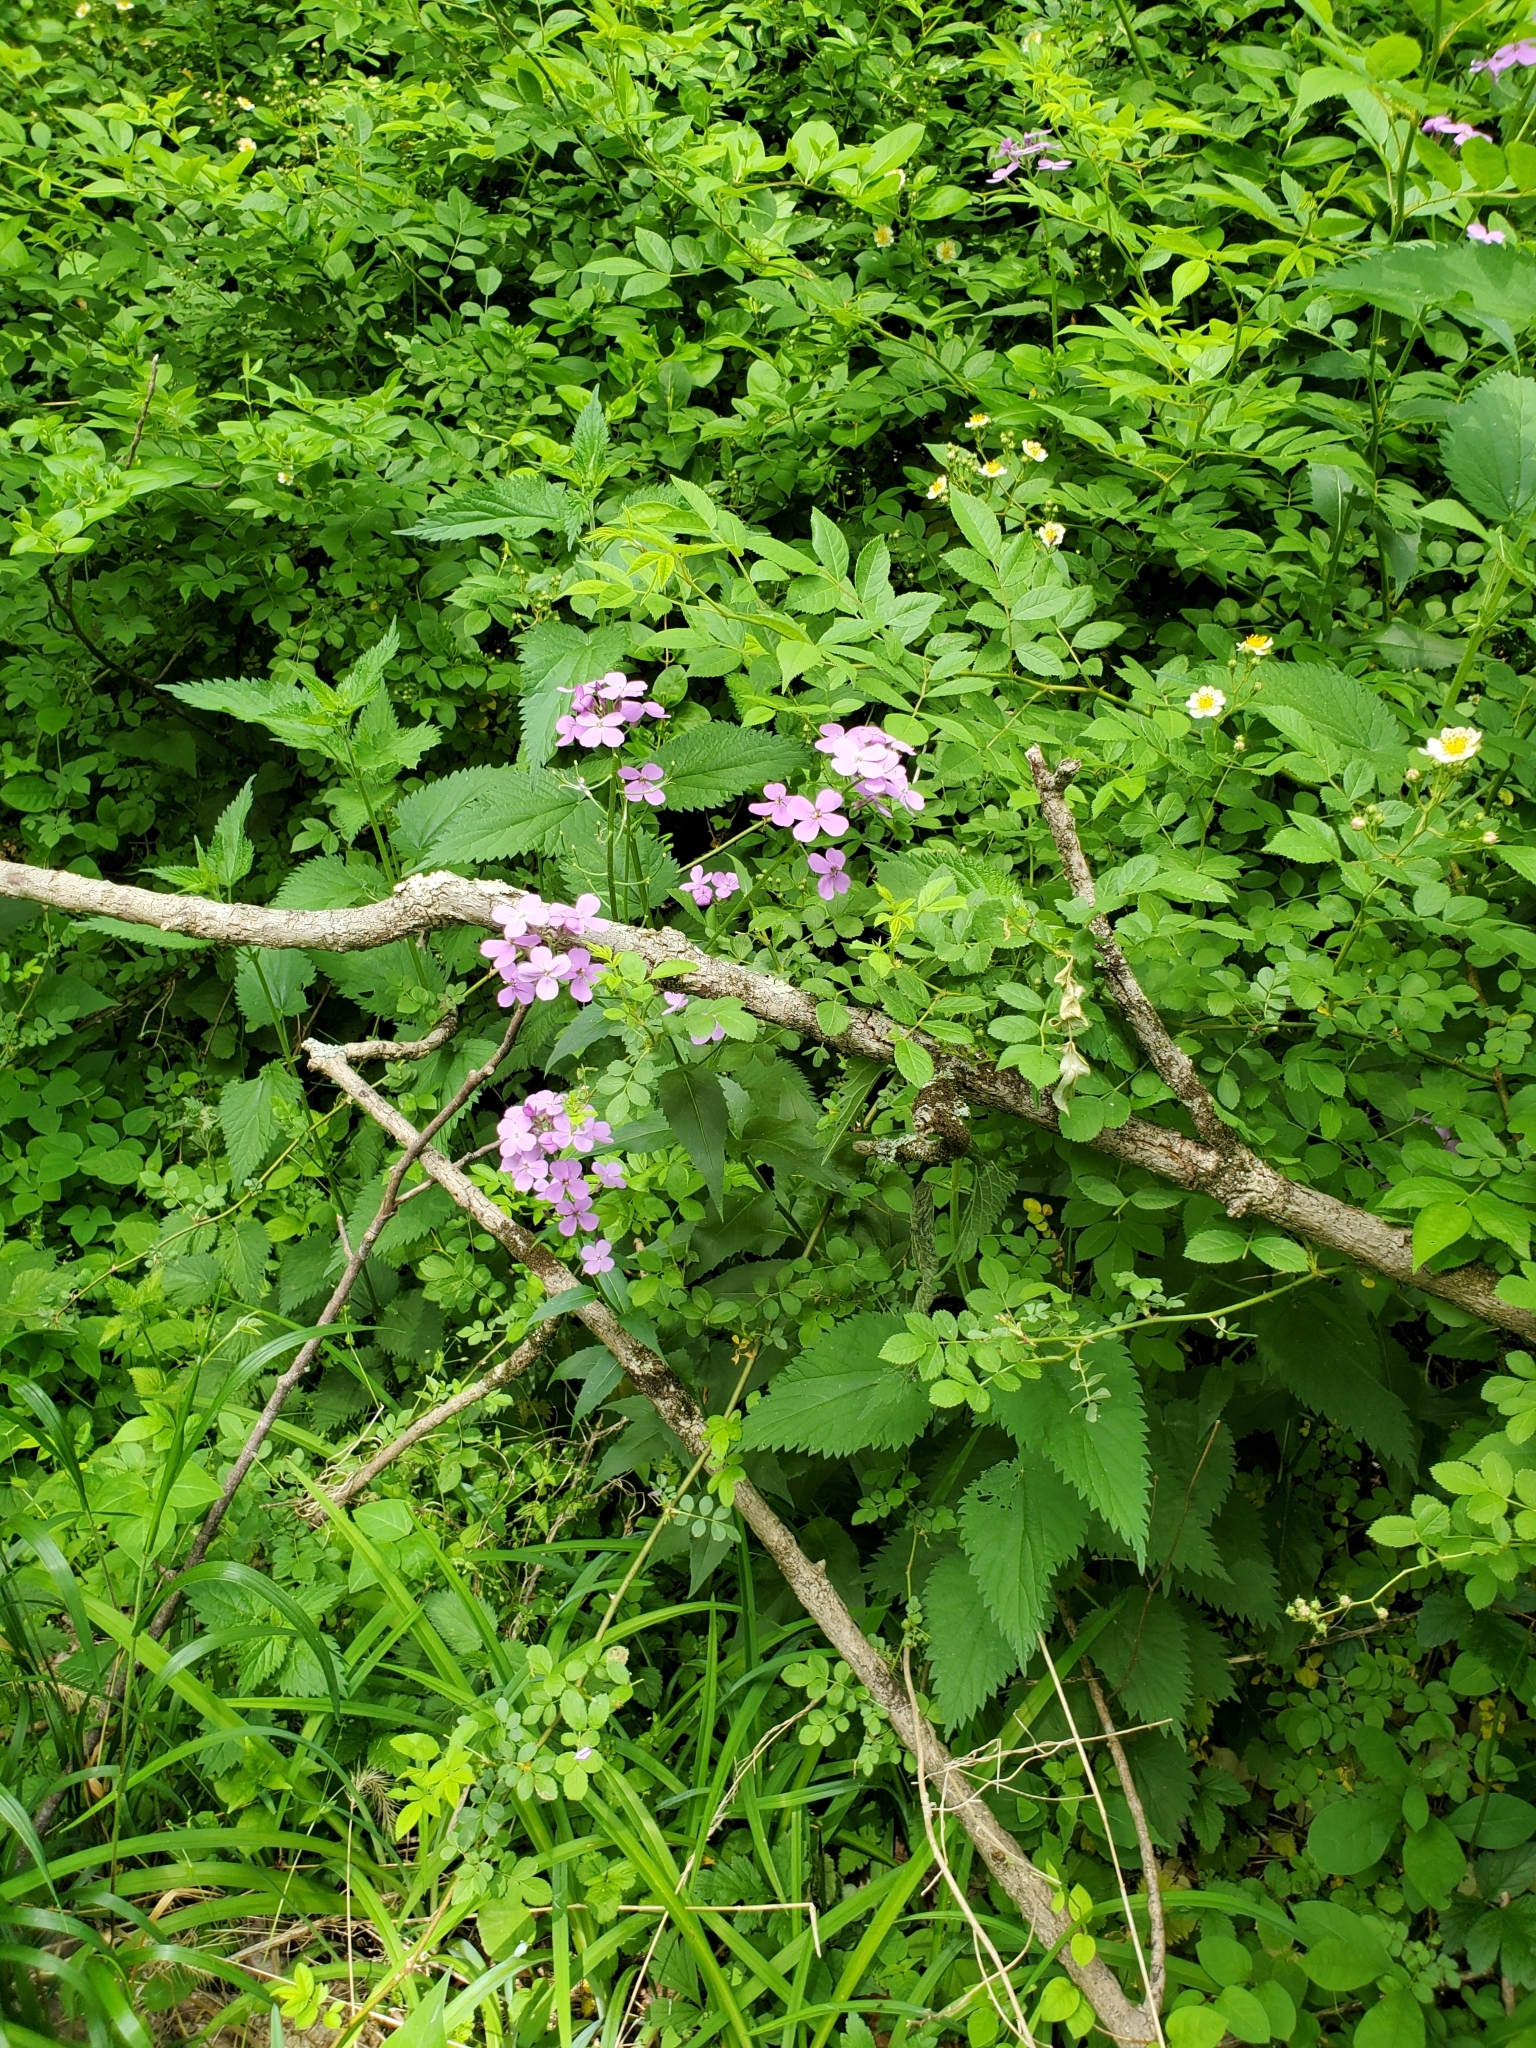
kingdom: Plantae
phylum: Tracheophyta
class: Magnoliopsida
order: Brassicales
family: Brassicaceae
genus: Hesperis
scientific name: Hesperis matronalis
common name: Dame's-violet
